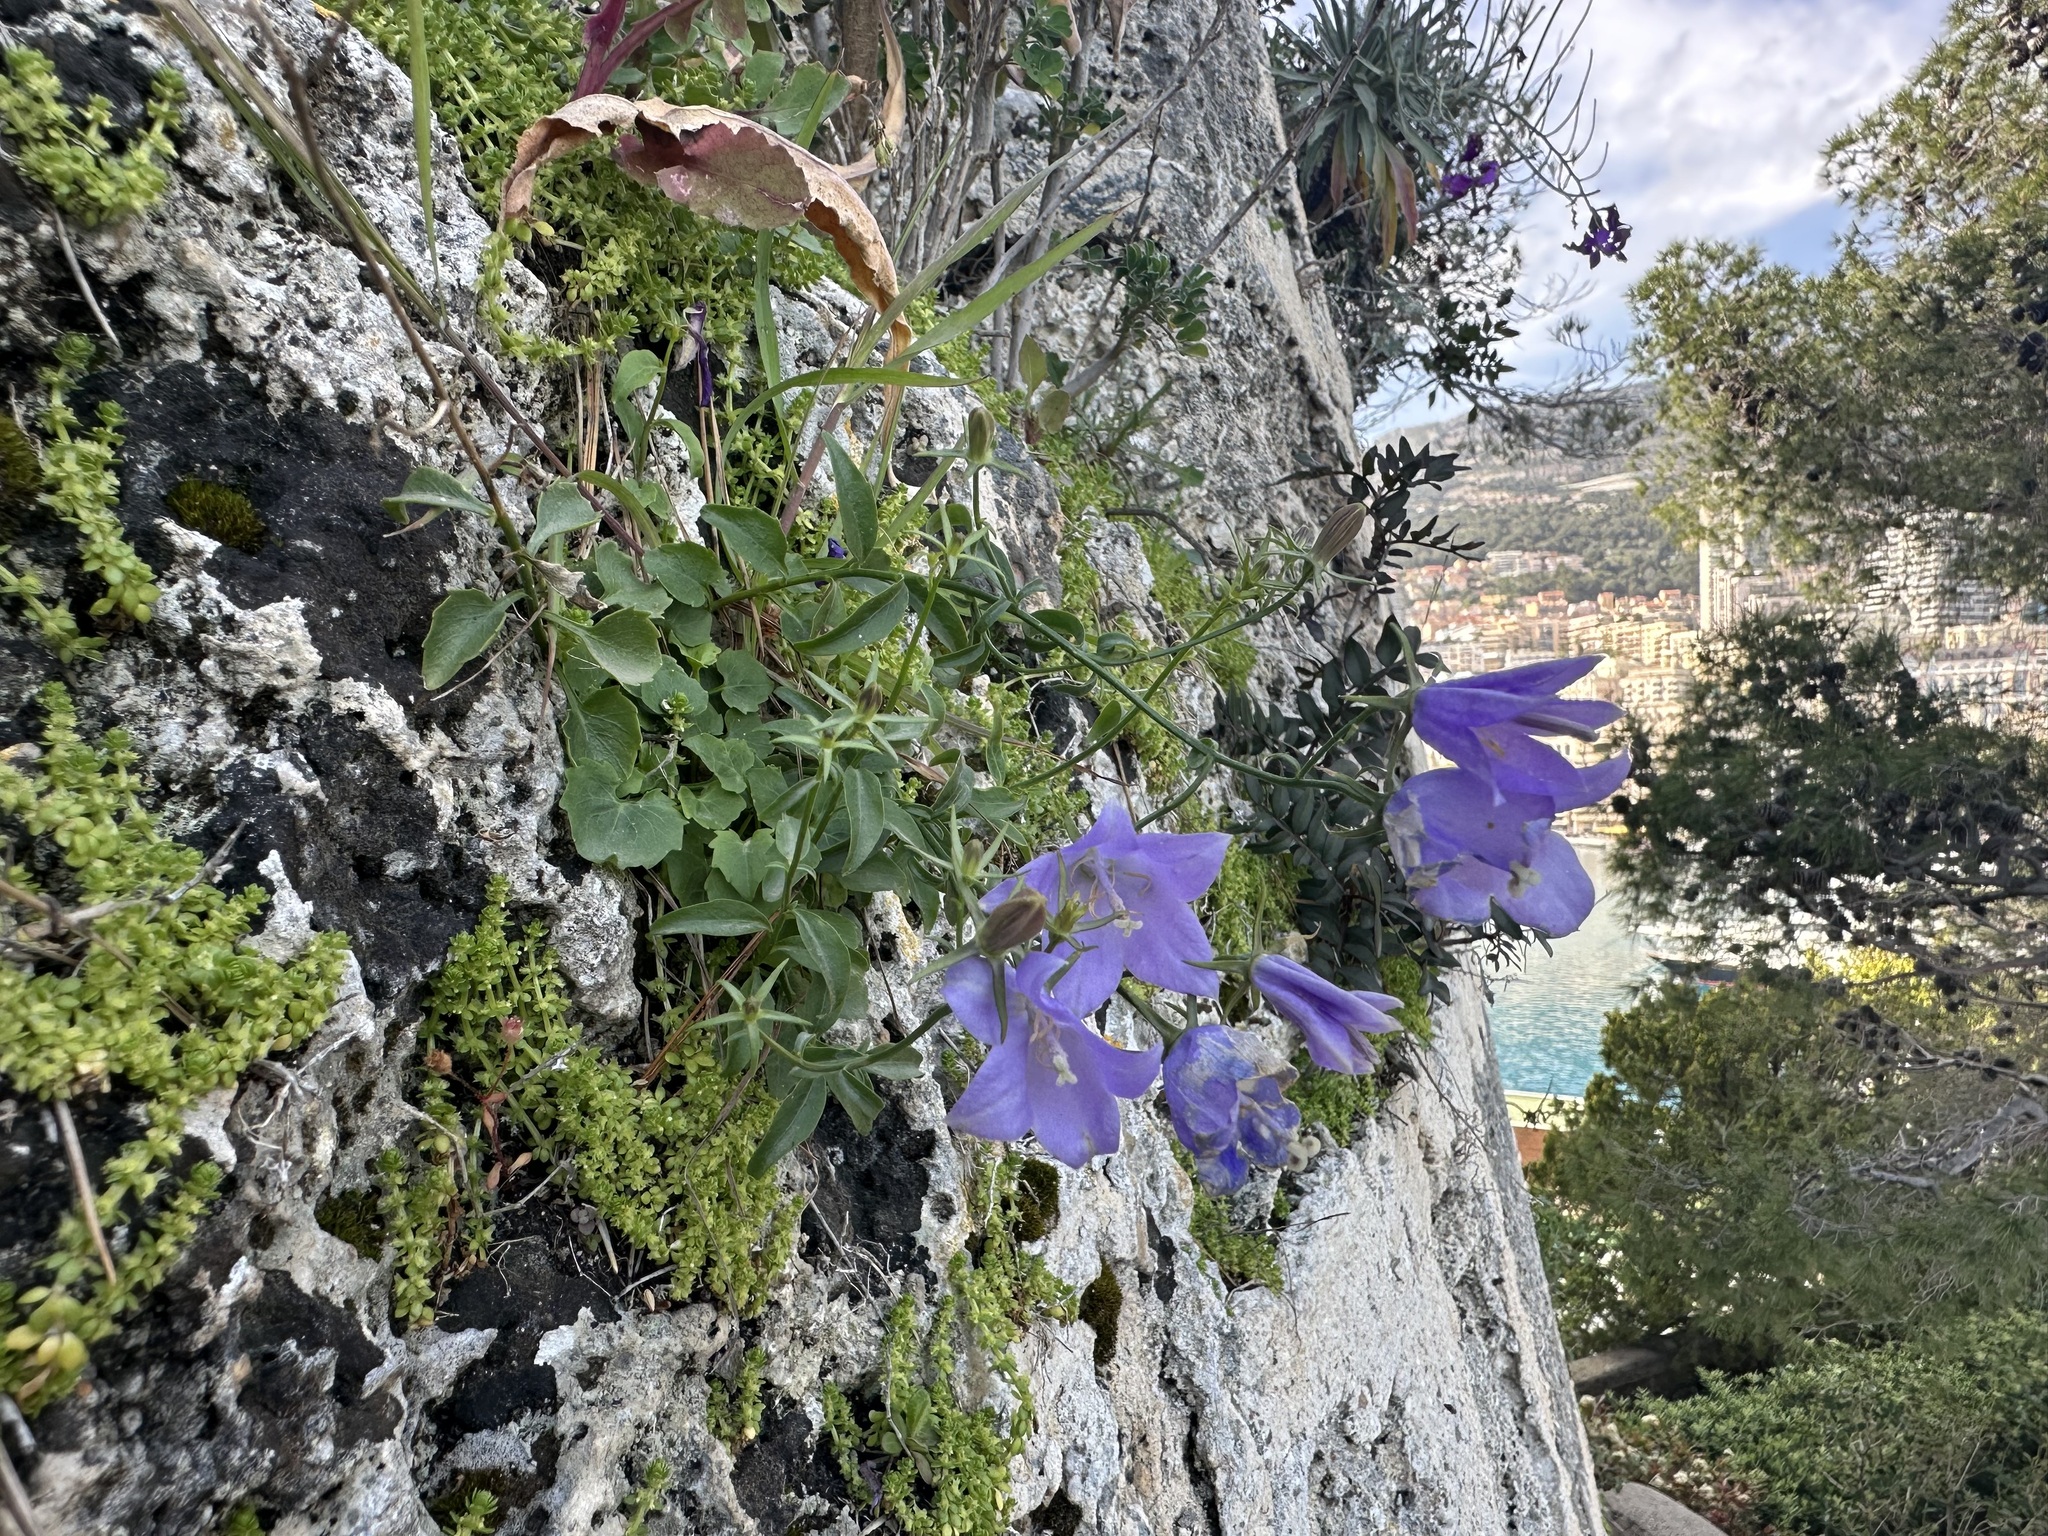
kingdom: Plantae
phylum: Tracheophyta
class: Magnoliopsida
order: Asterales
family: Campanulaceae
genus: Campanula
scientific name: Campanula macrorhiza
